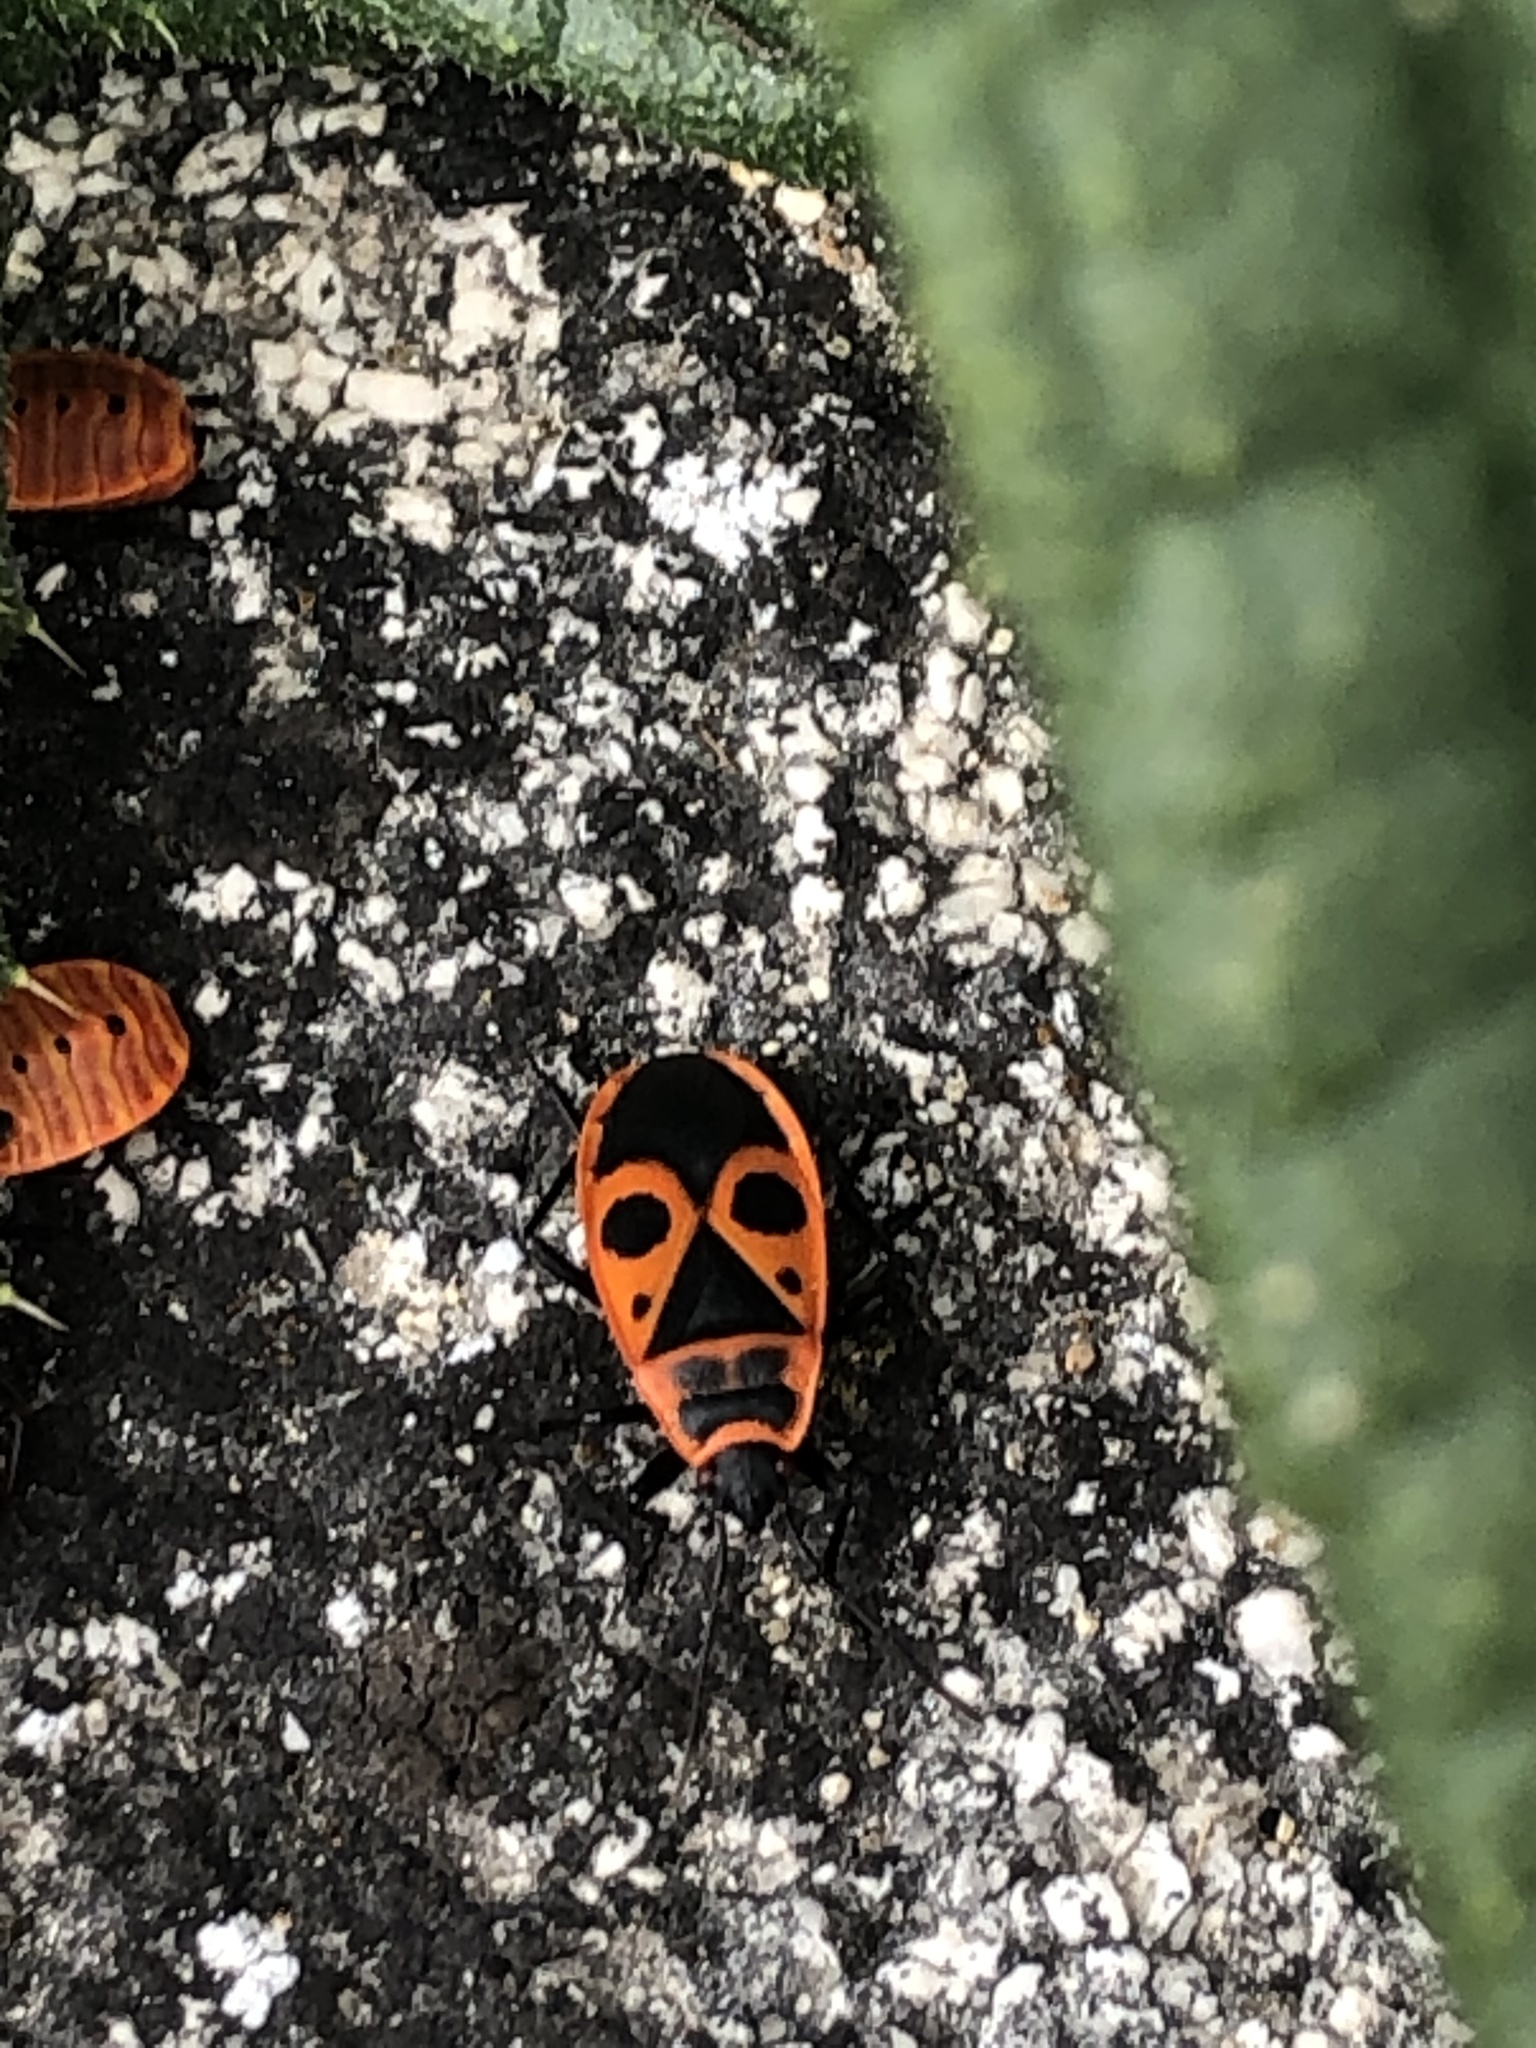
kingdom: Animalia
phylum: Arthropoda
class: Insecta
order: Hemiptera
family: Pyrrhocoridae
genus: Pyrrhocoris
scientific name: Pyrrhocoris apterus
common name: Firebug
